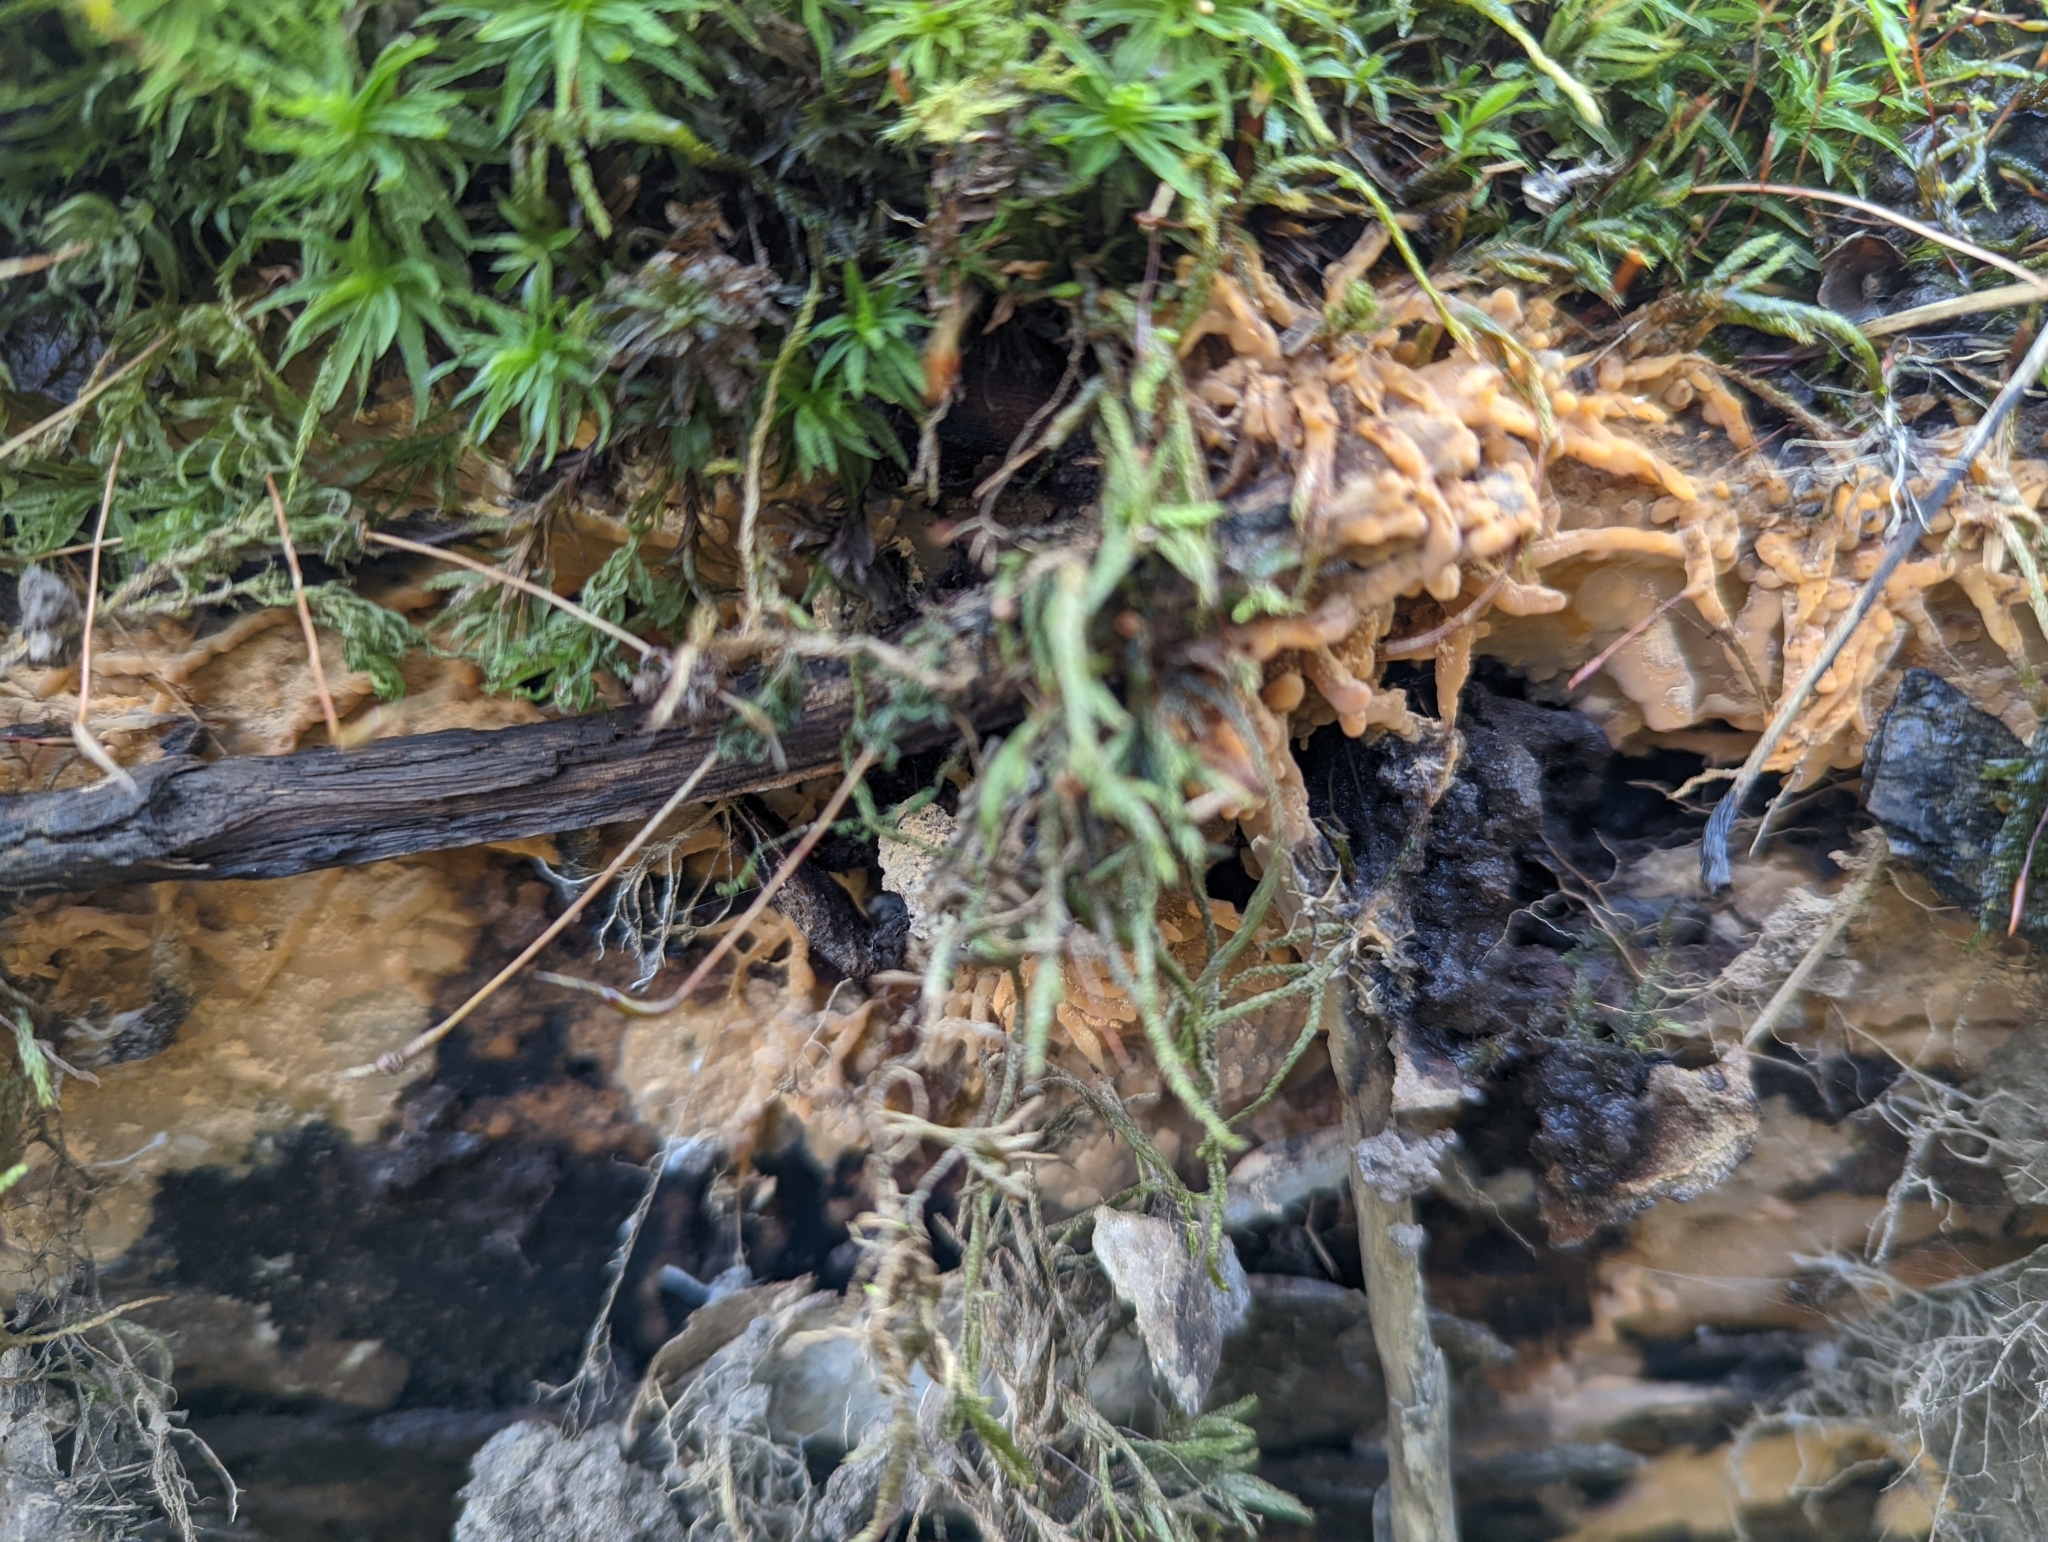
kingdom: Fungi
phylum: Basidiomycota
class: Agaricomycetes
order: Russulales
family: Peniophoraceae
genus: Dichostereum
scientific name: Dichostereum effuscatum
